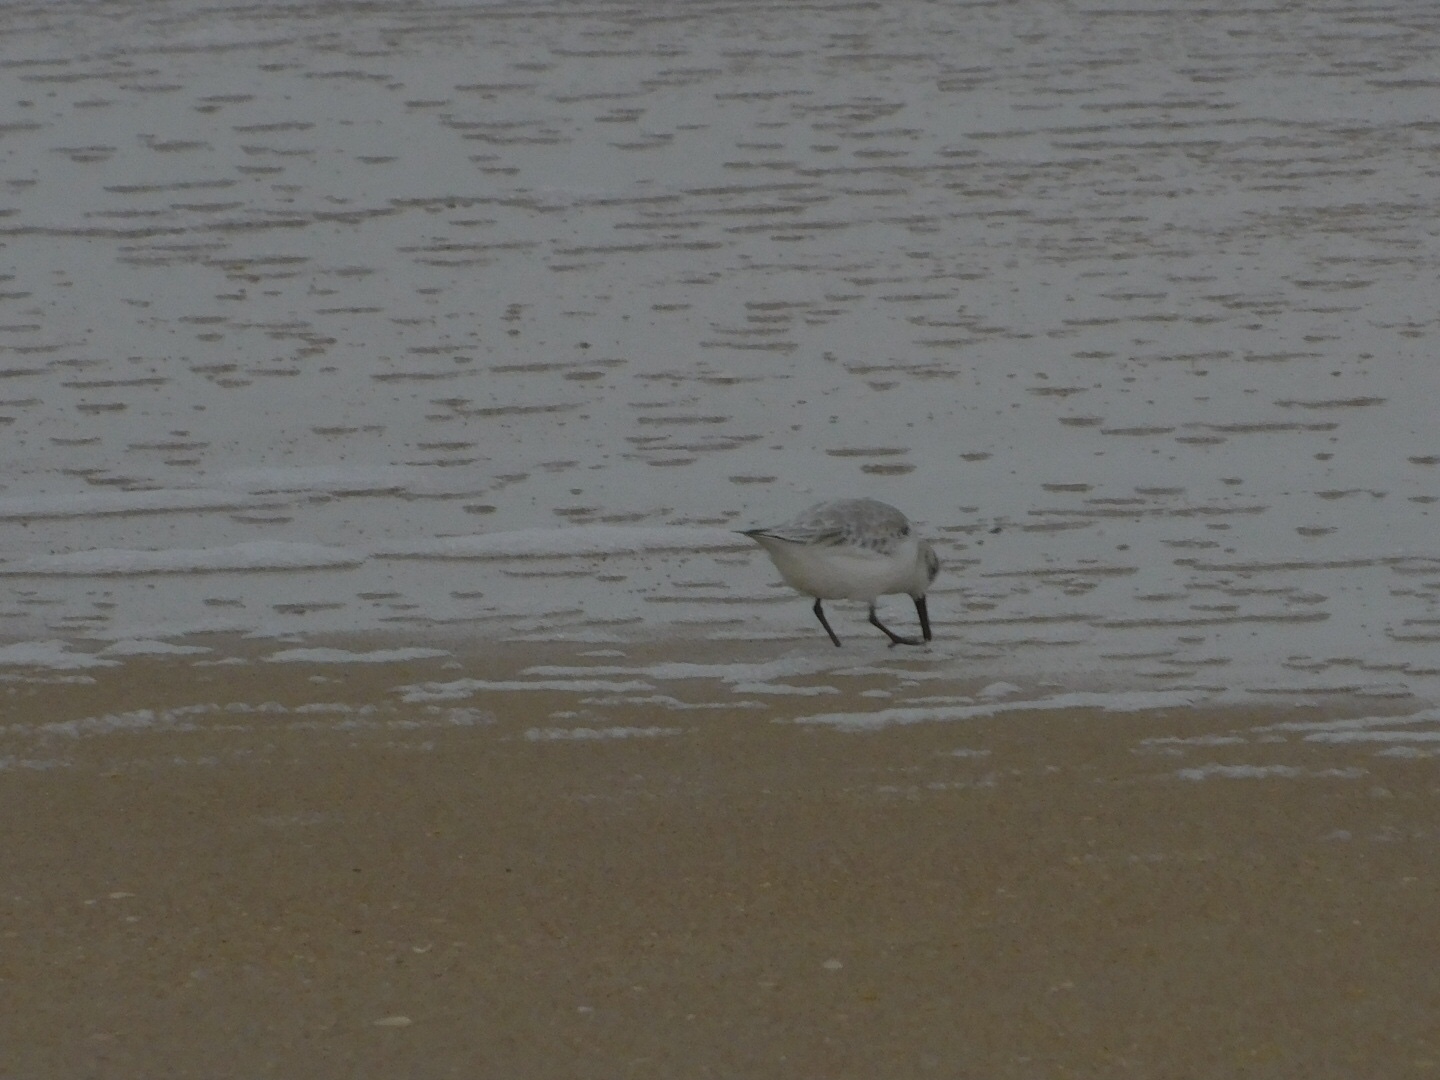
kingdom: Animalia
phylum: Chordata
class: Aves
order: Charadriiformes
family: Scolopacidae
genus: Calidris
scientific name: Calidris alba
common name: Sanderling
